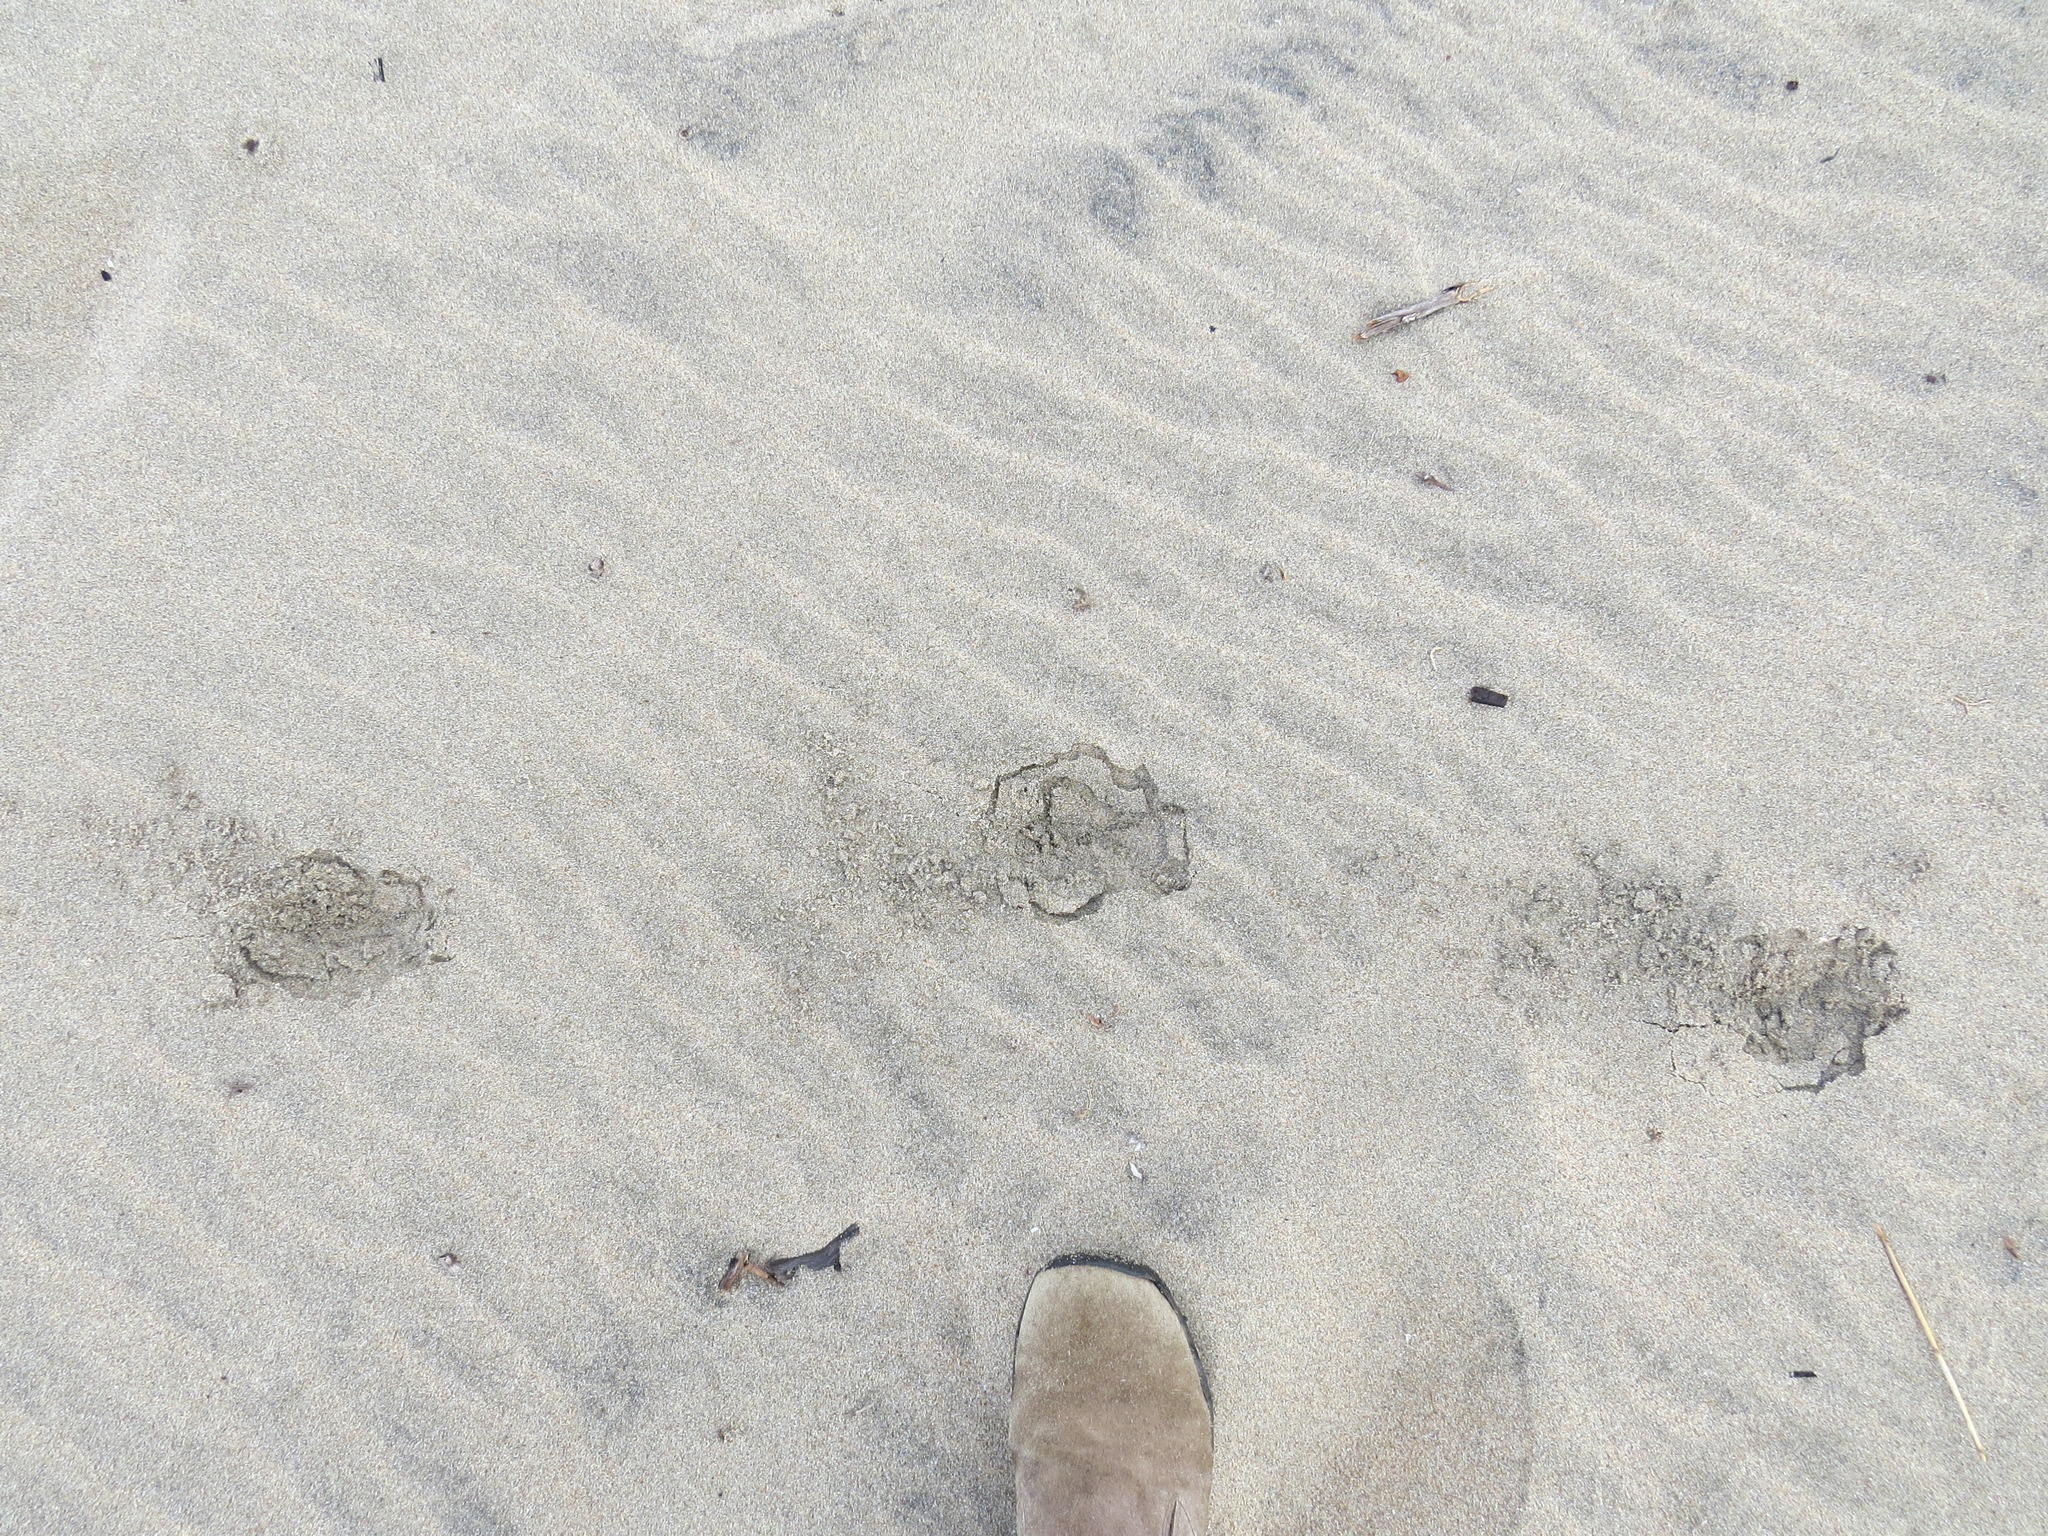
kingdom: Animalia
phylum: Chordata
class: Mammalia
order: Artiodactyla
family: Cervidae
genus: Odocoileus
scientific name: Odocoileus hemionus
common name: Mule deer
